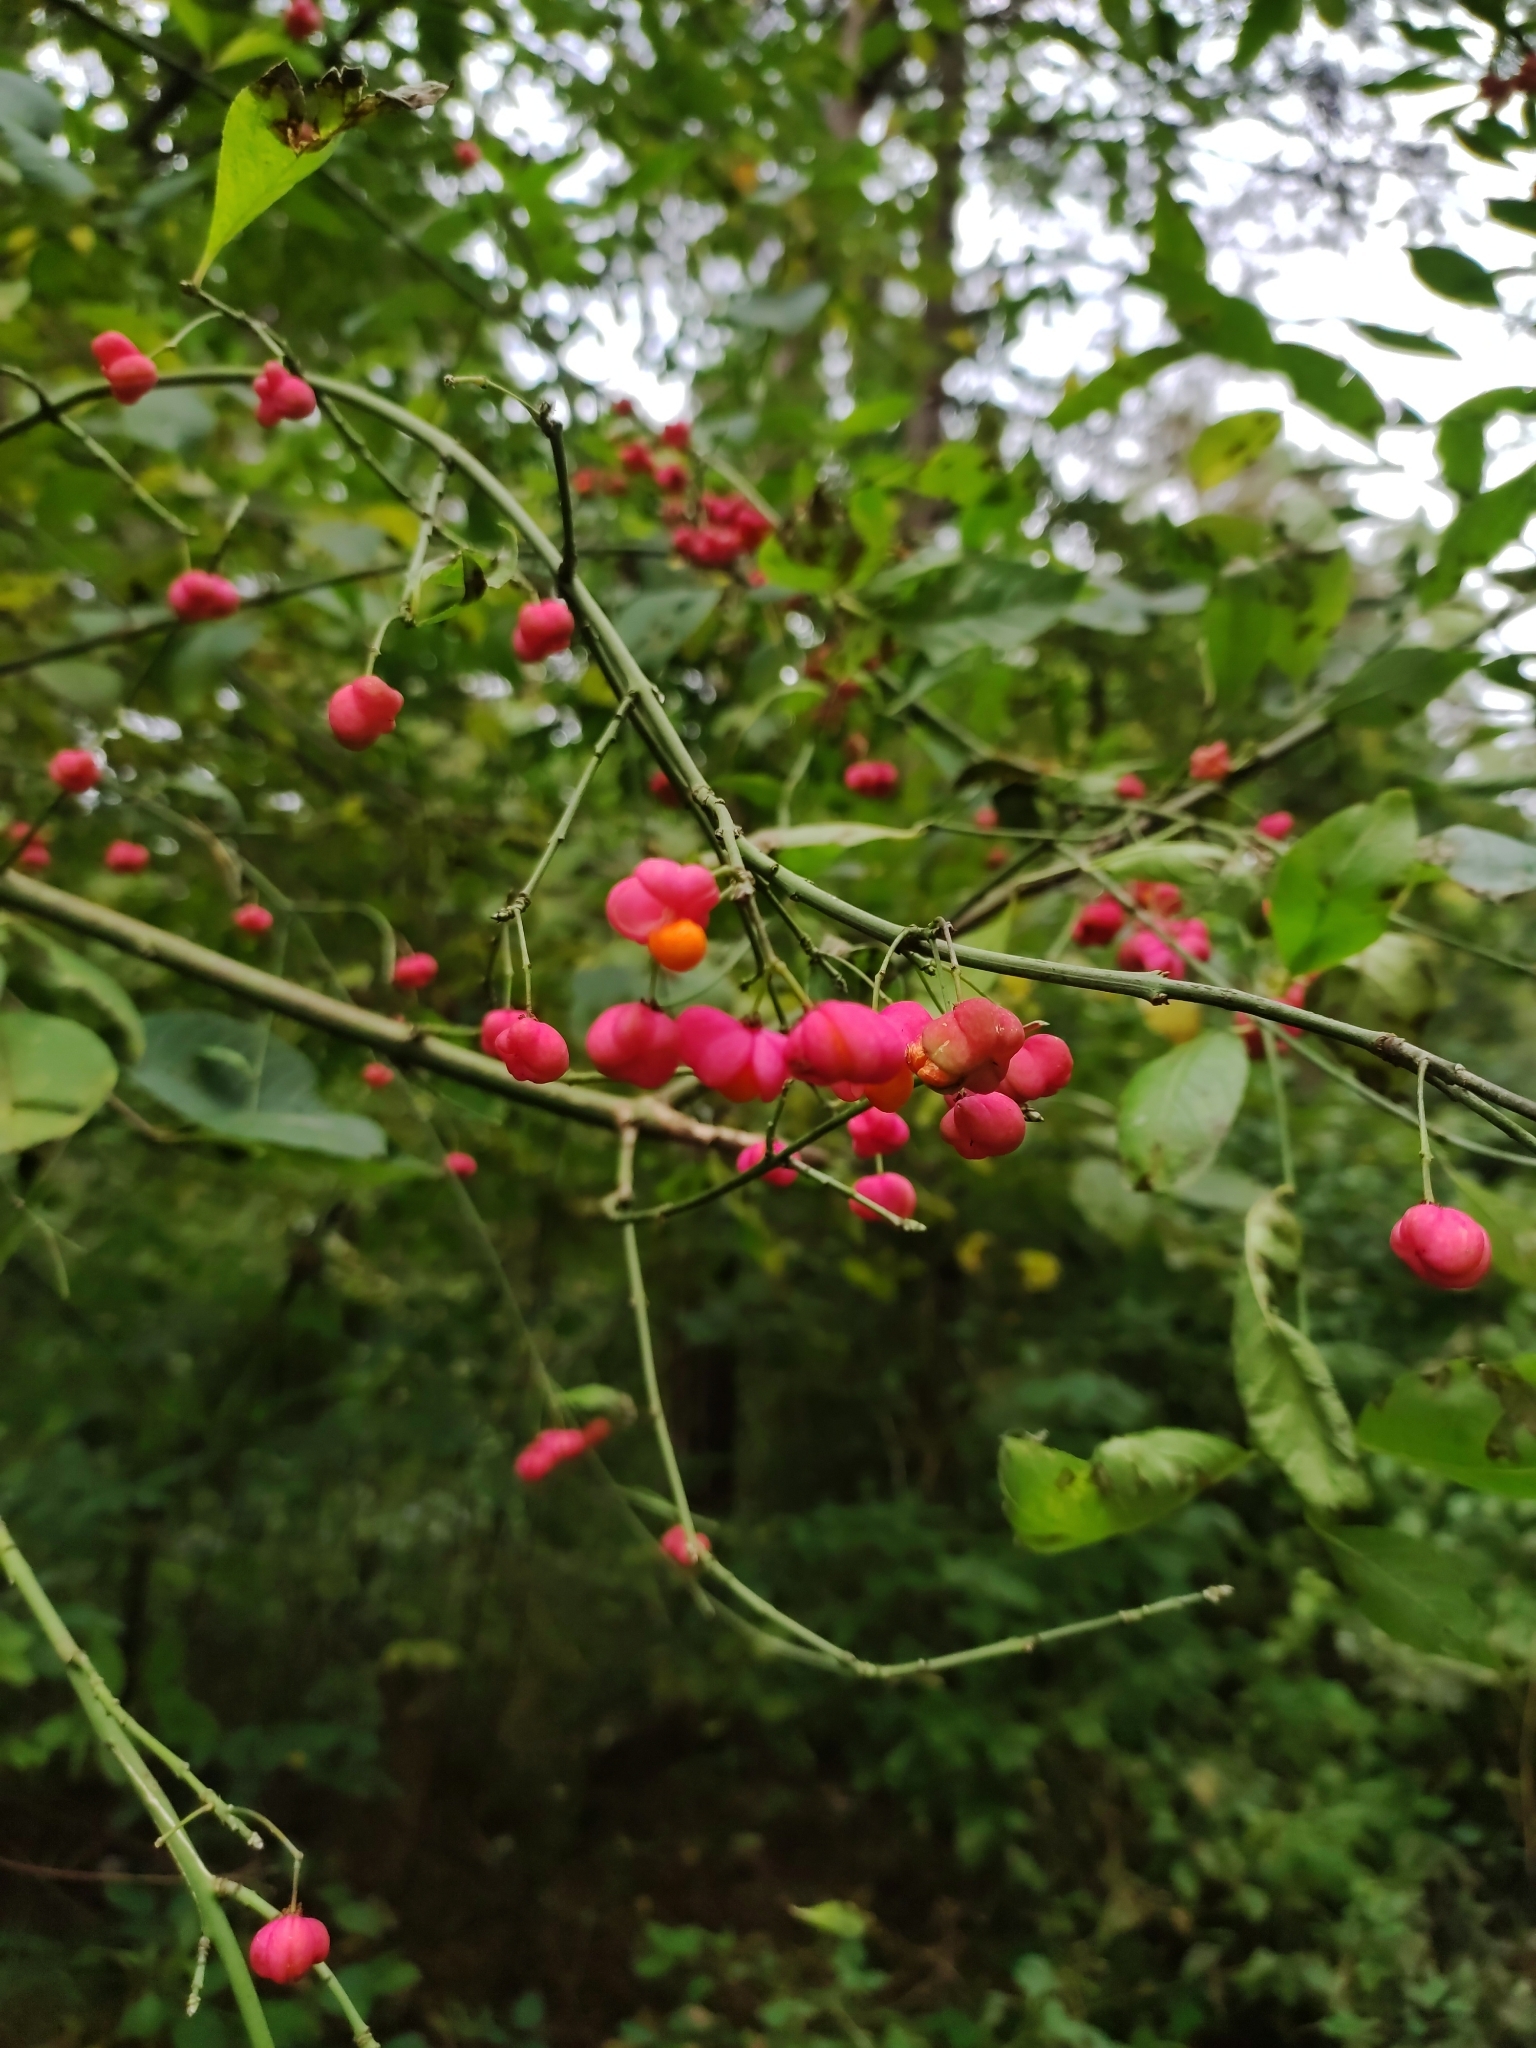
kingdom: Plantae
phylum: Tracheophyta
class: Magnoliopsida
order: Celastrales
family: Celastraceae
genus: Euonymus
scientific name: Euonymus europaeus
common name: Spindle
